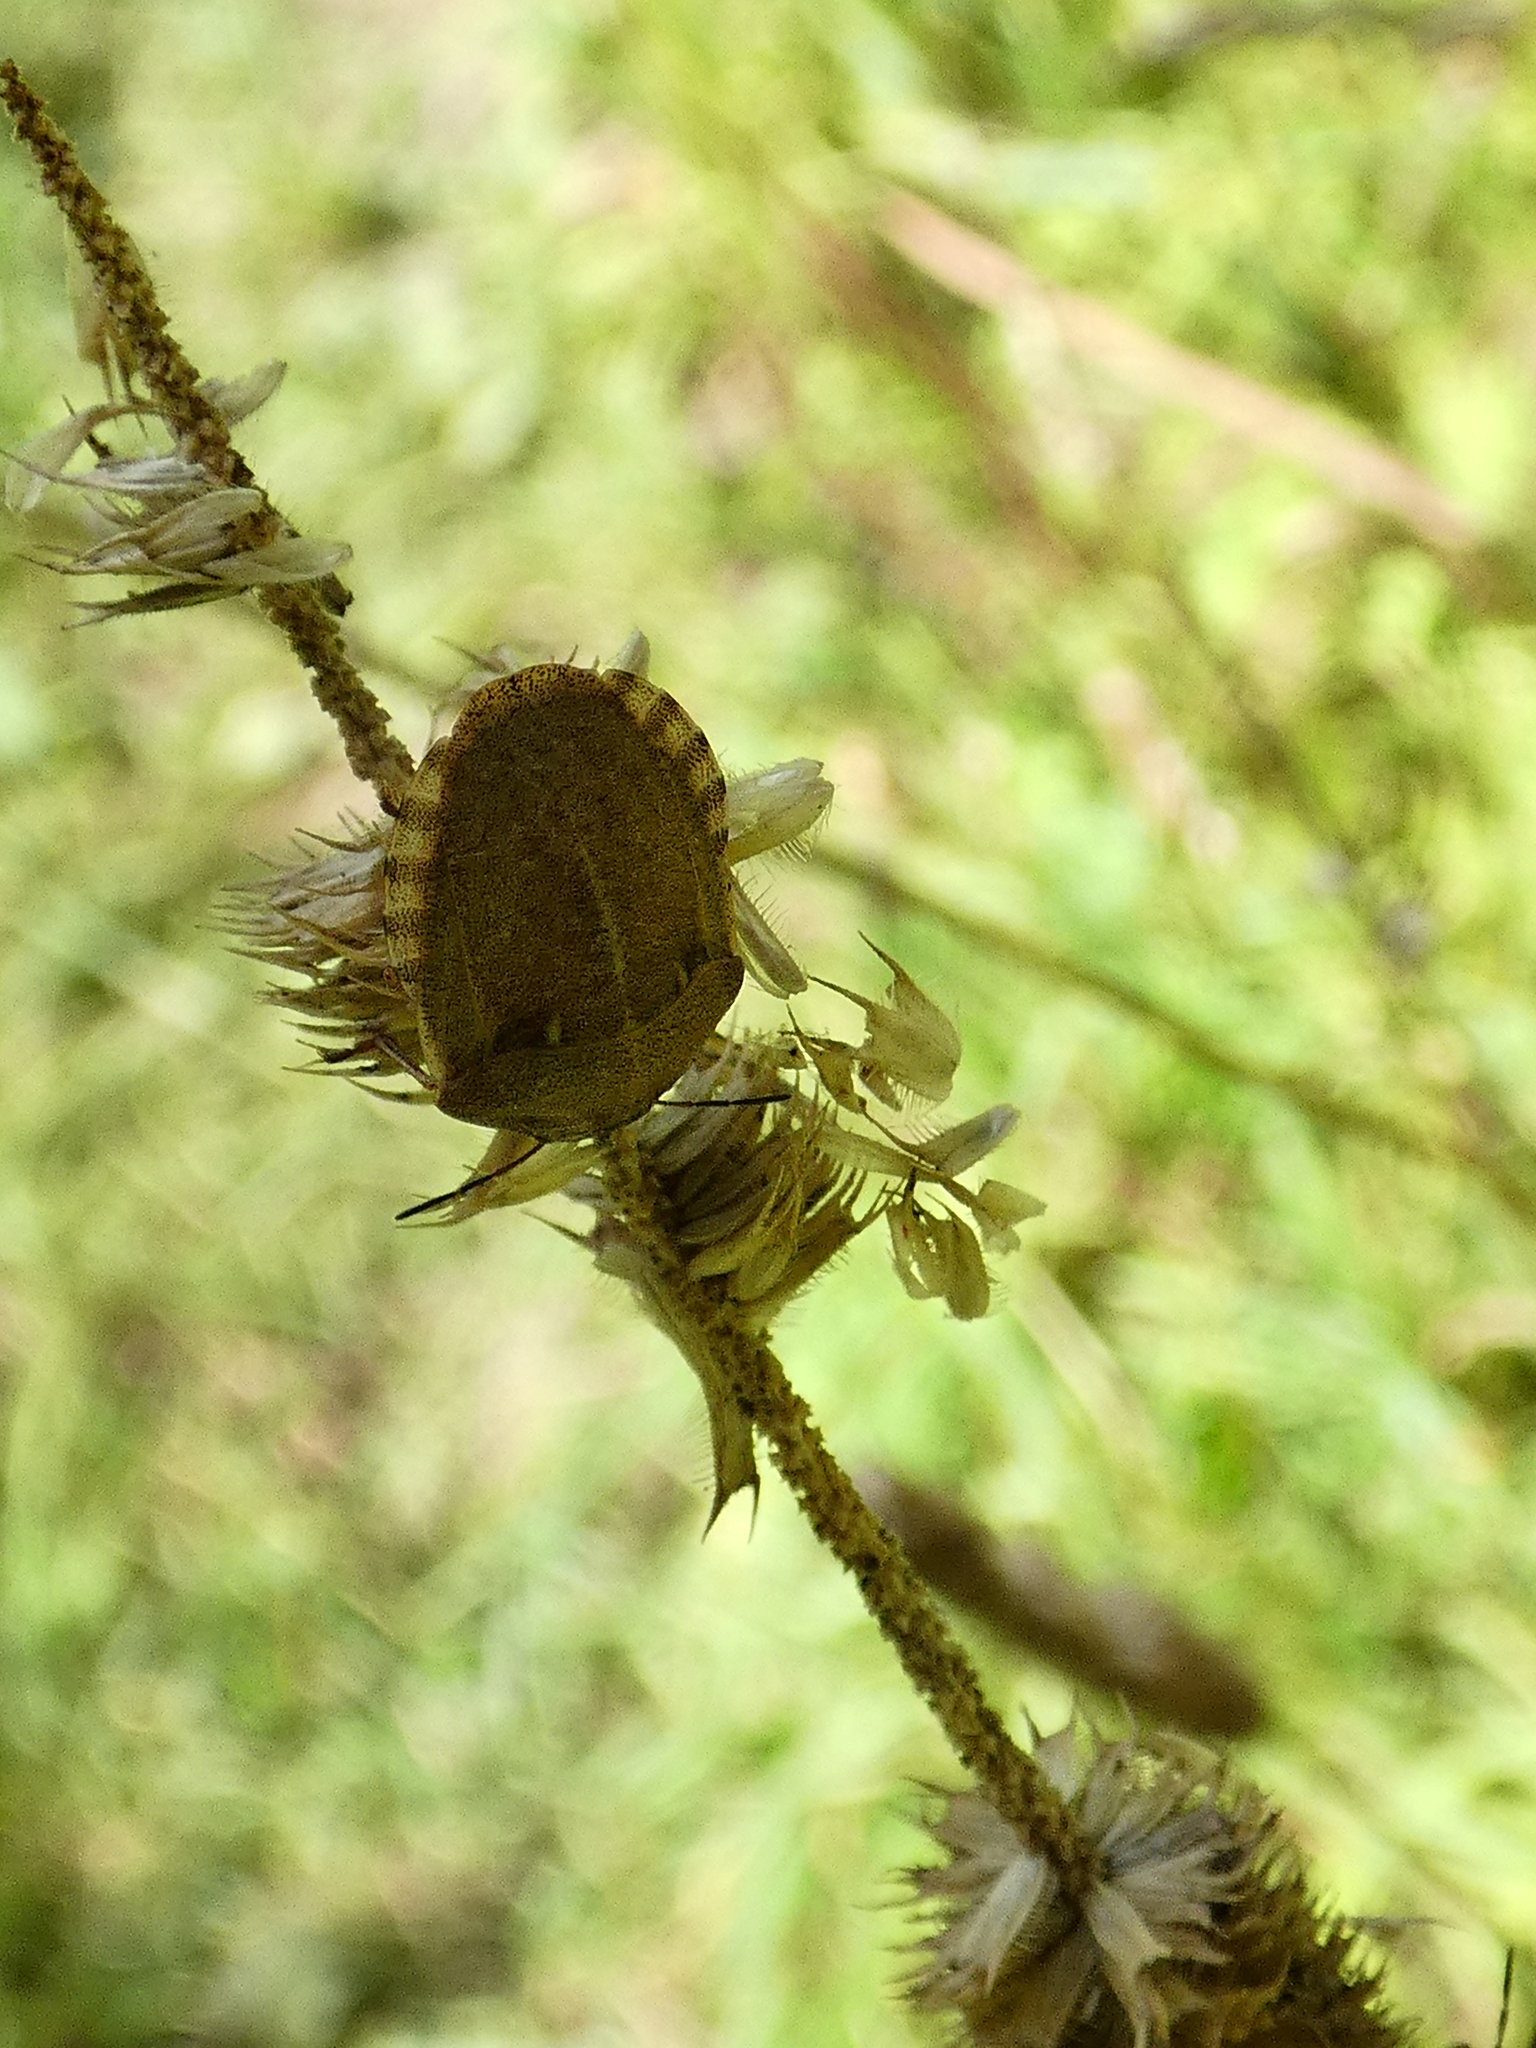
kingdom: Animalia
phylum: Arthropoda
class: Insecta
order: Hemiptera
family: Scutelleridae
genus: Eurygaster
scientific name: Eurygaster testudinaria
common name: Tortoise bug
